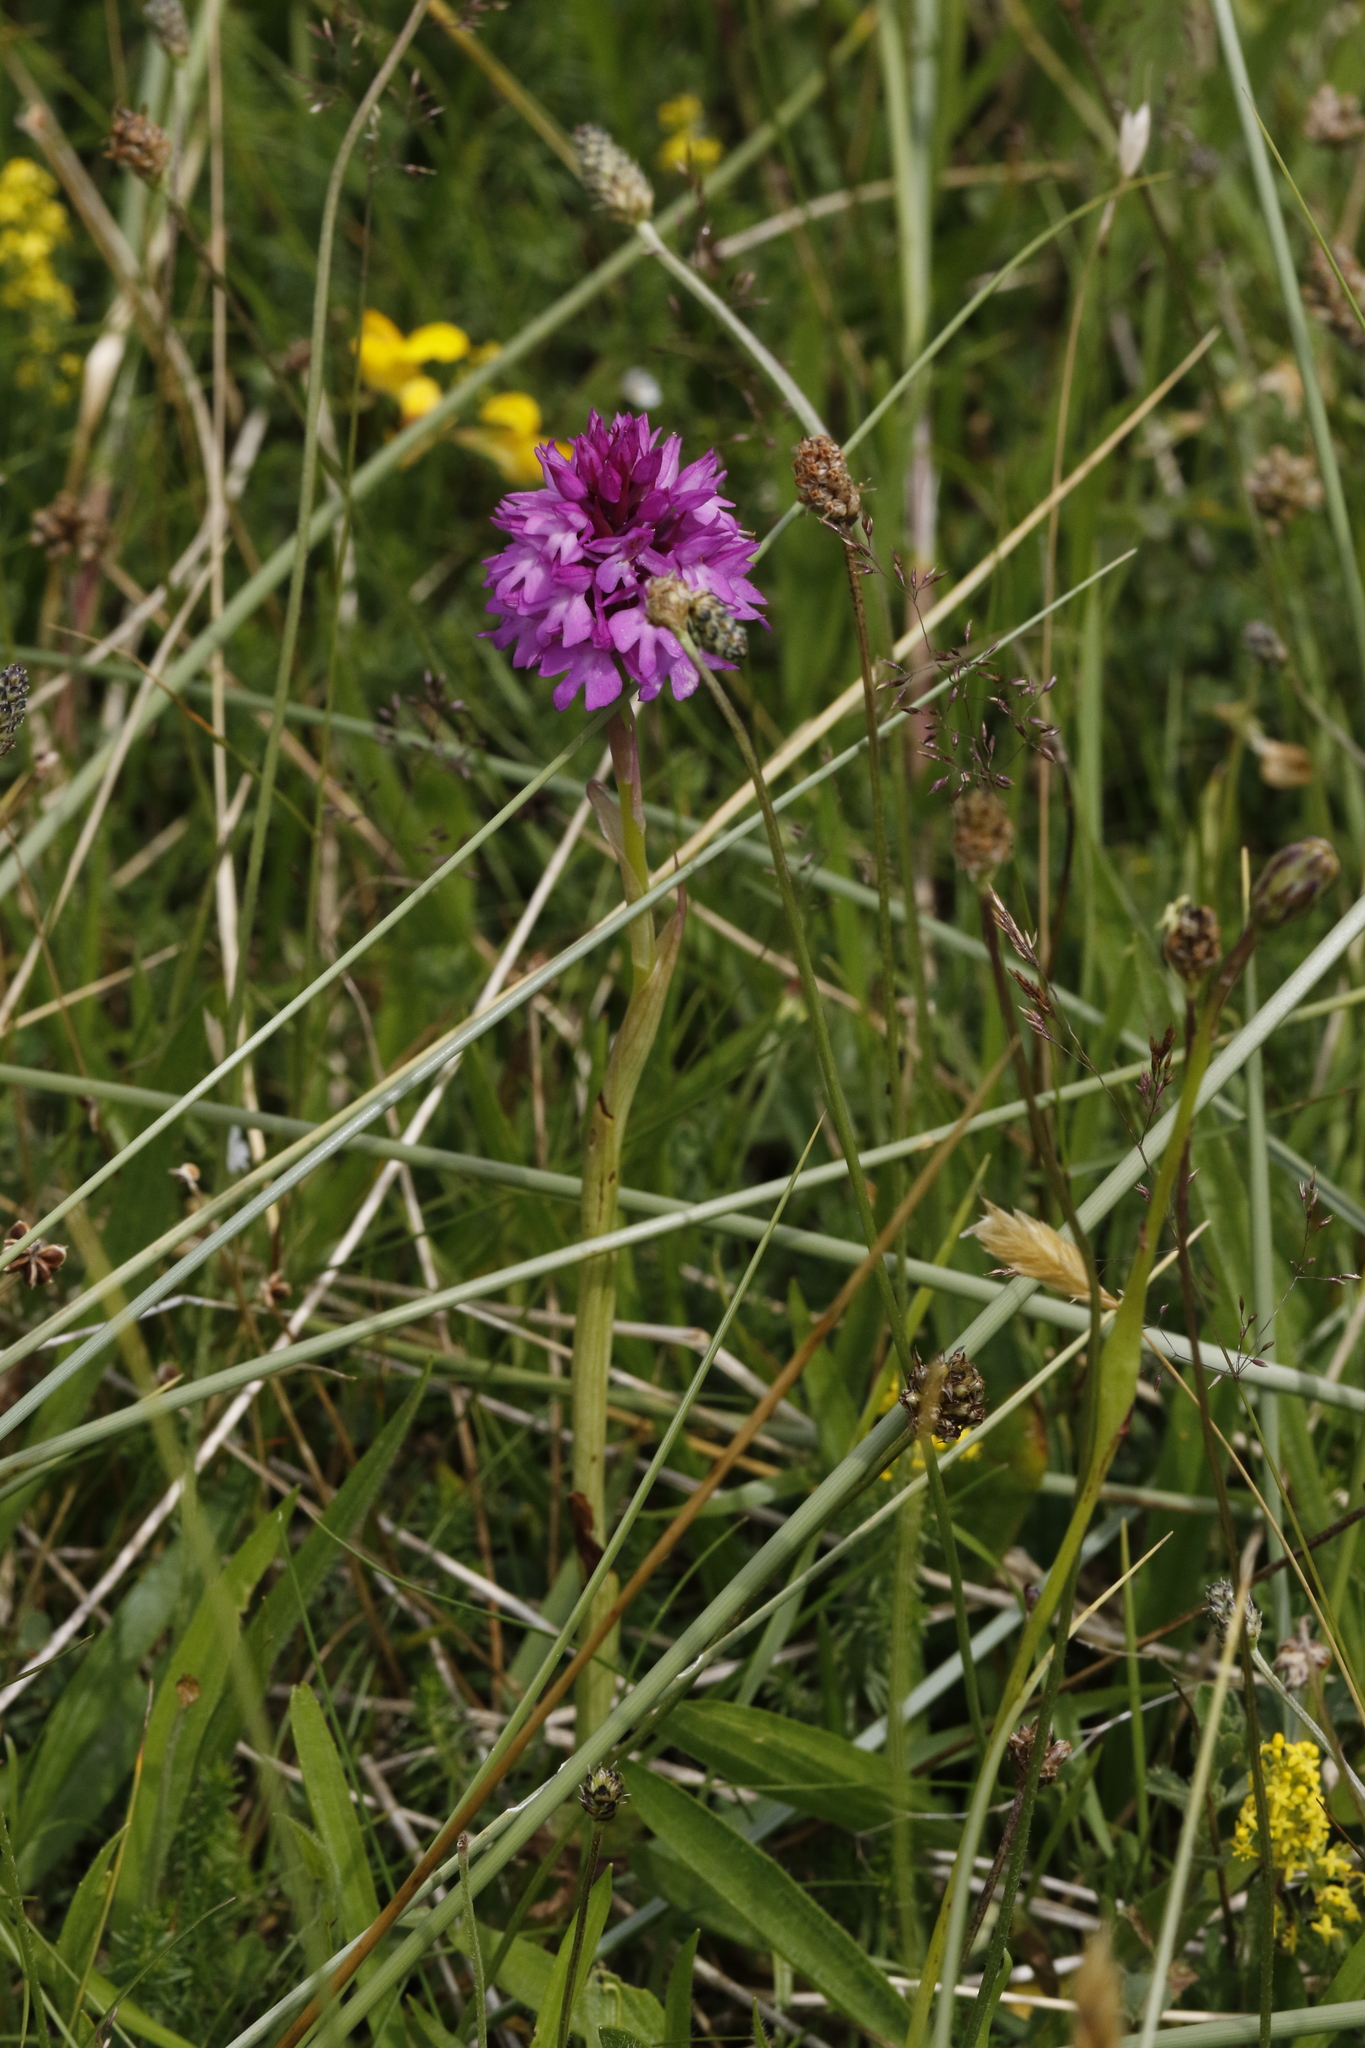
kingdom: Plantae
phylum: Tracheophyta
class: Liliopsida
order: Asparagales
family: Orchidaceae
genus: Anacamptis
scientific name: Anacamptis pyramidalis
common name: Pyramidal orchid
